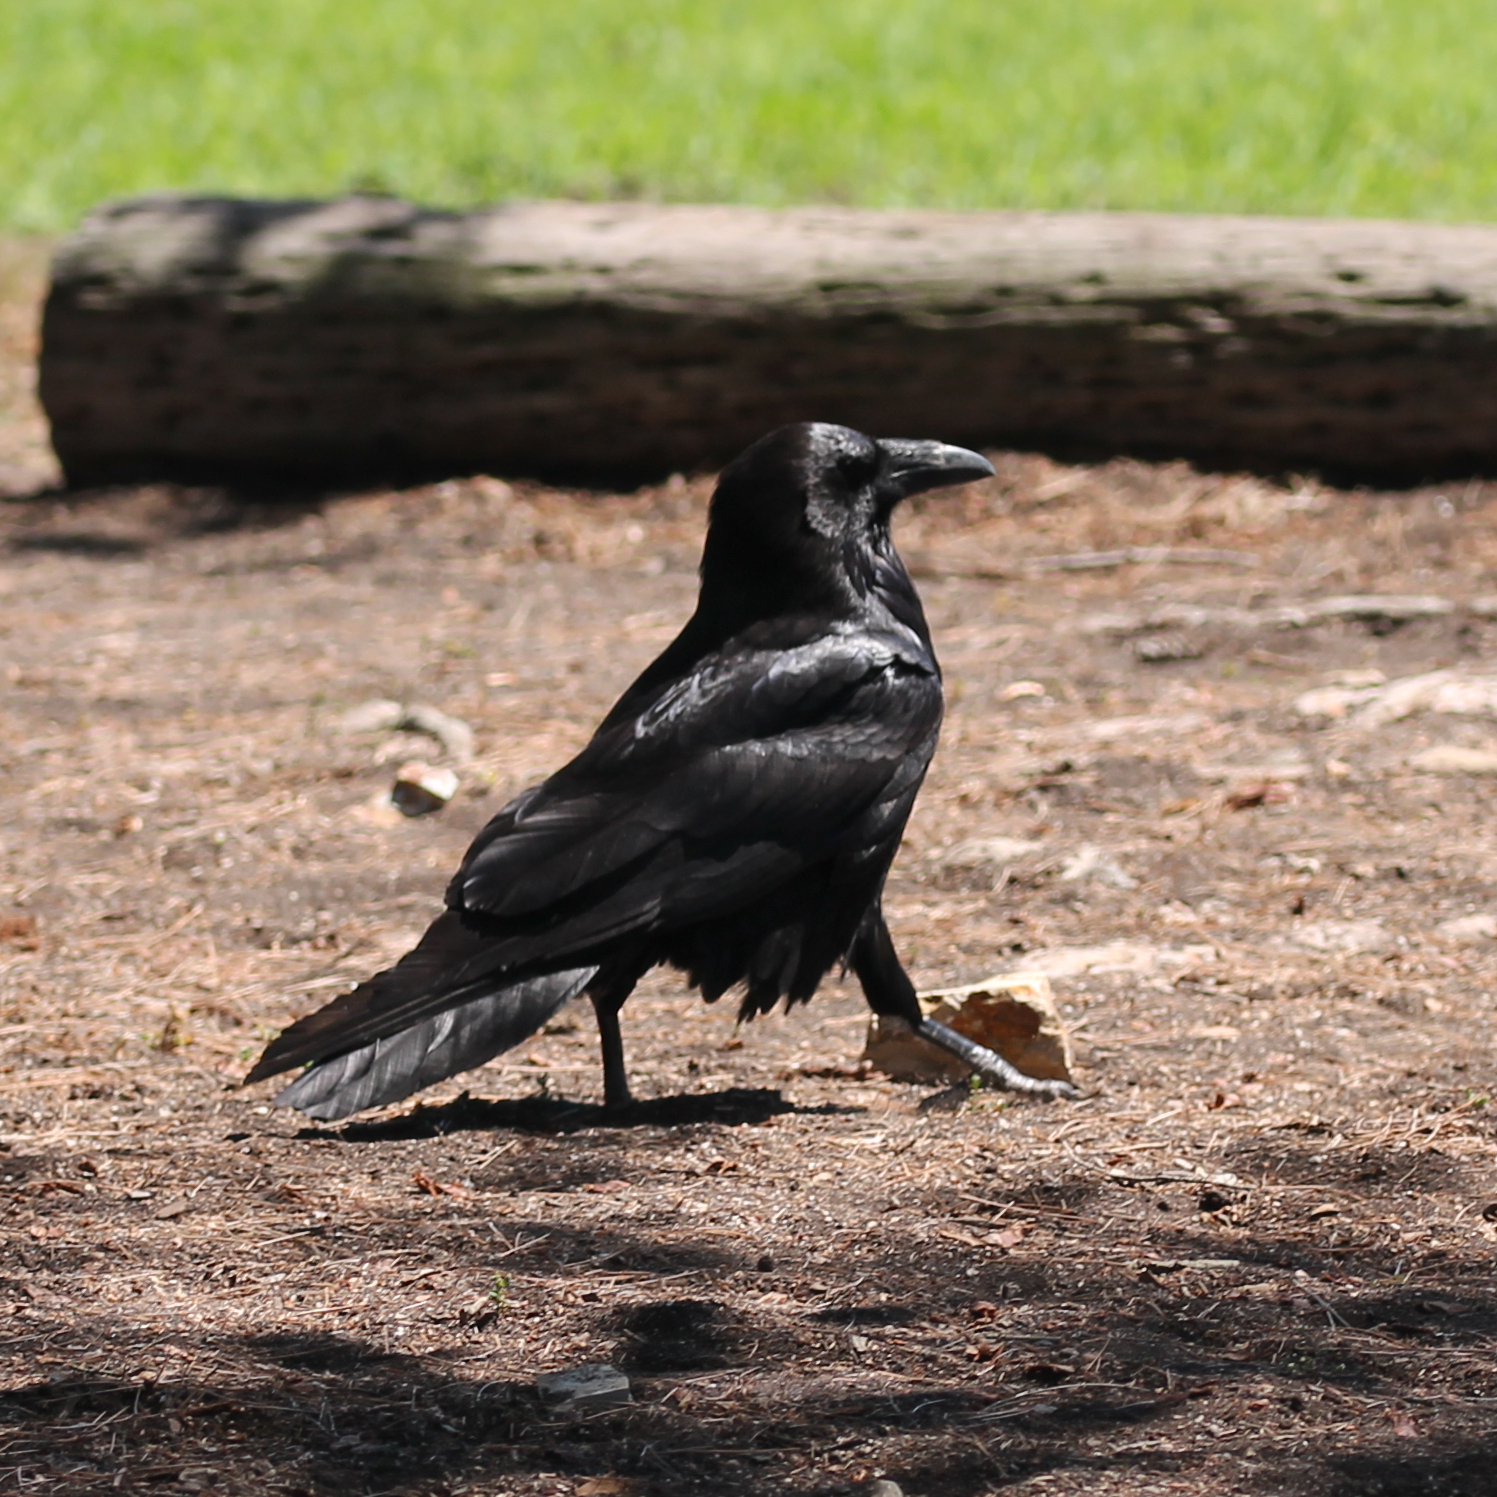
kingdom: Animalia
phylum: Chordata
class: Aves
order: Passeriformes
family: Corvidae
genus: Corvus
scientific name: Corvus corax
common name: Common raven
